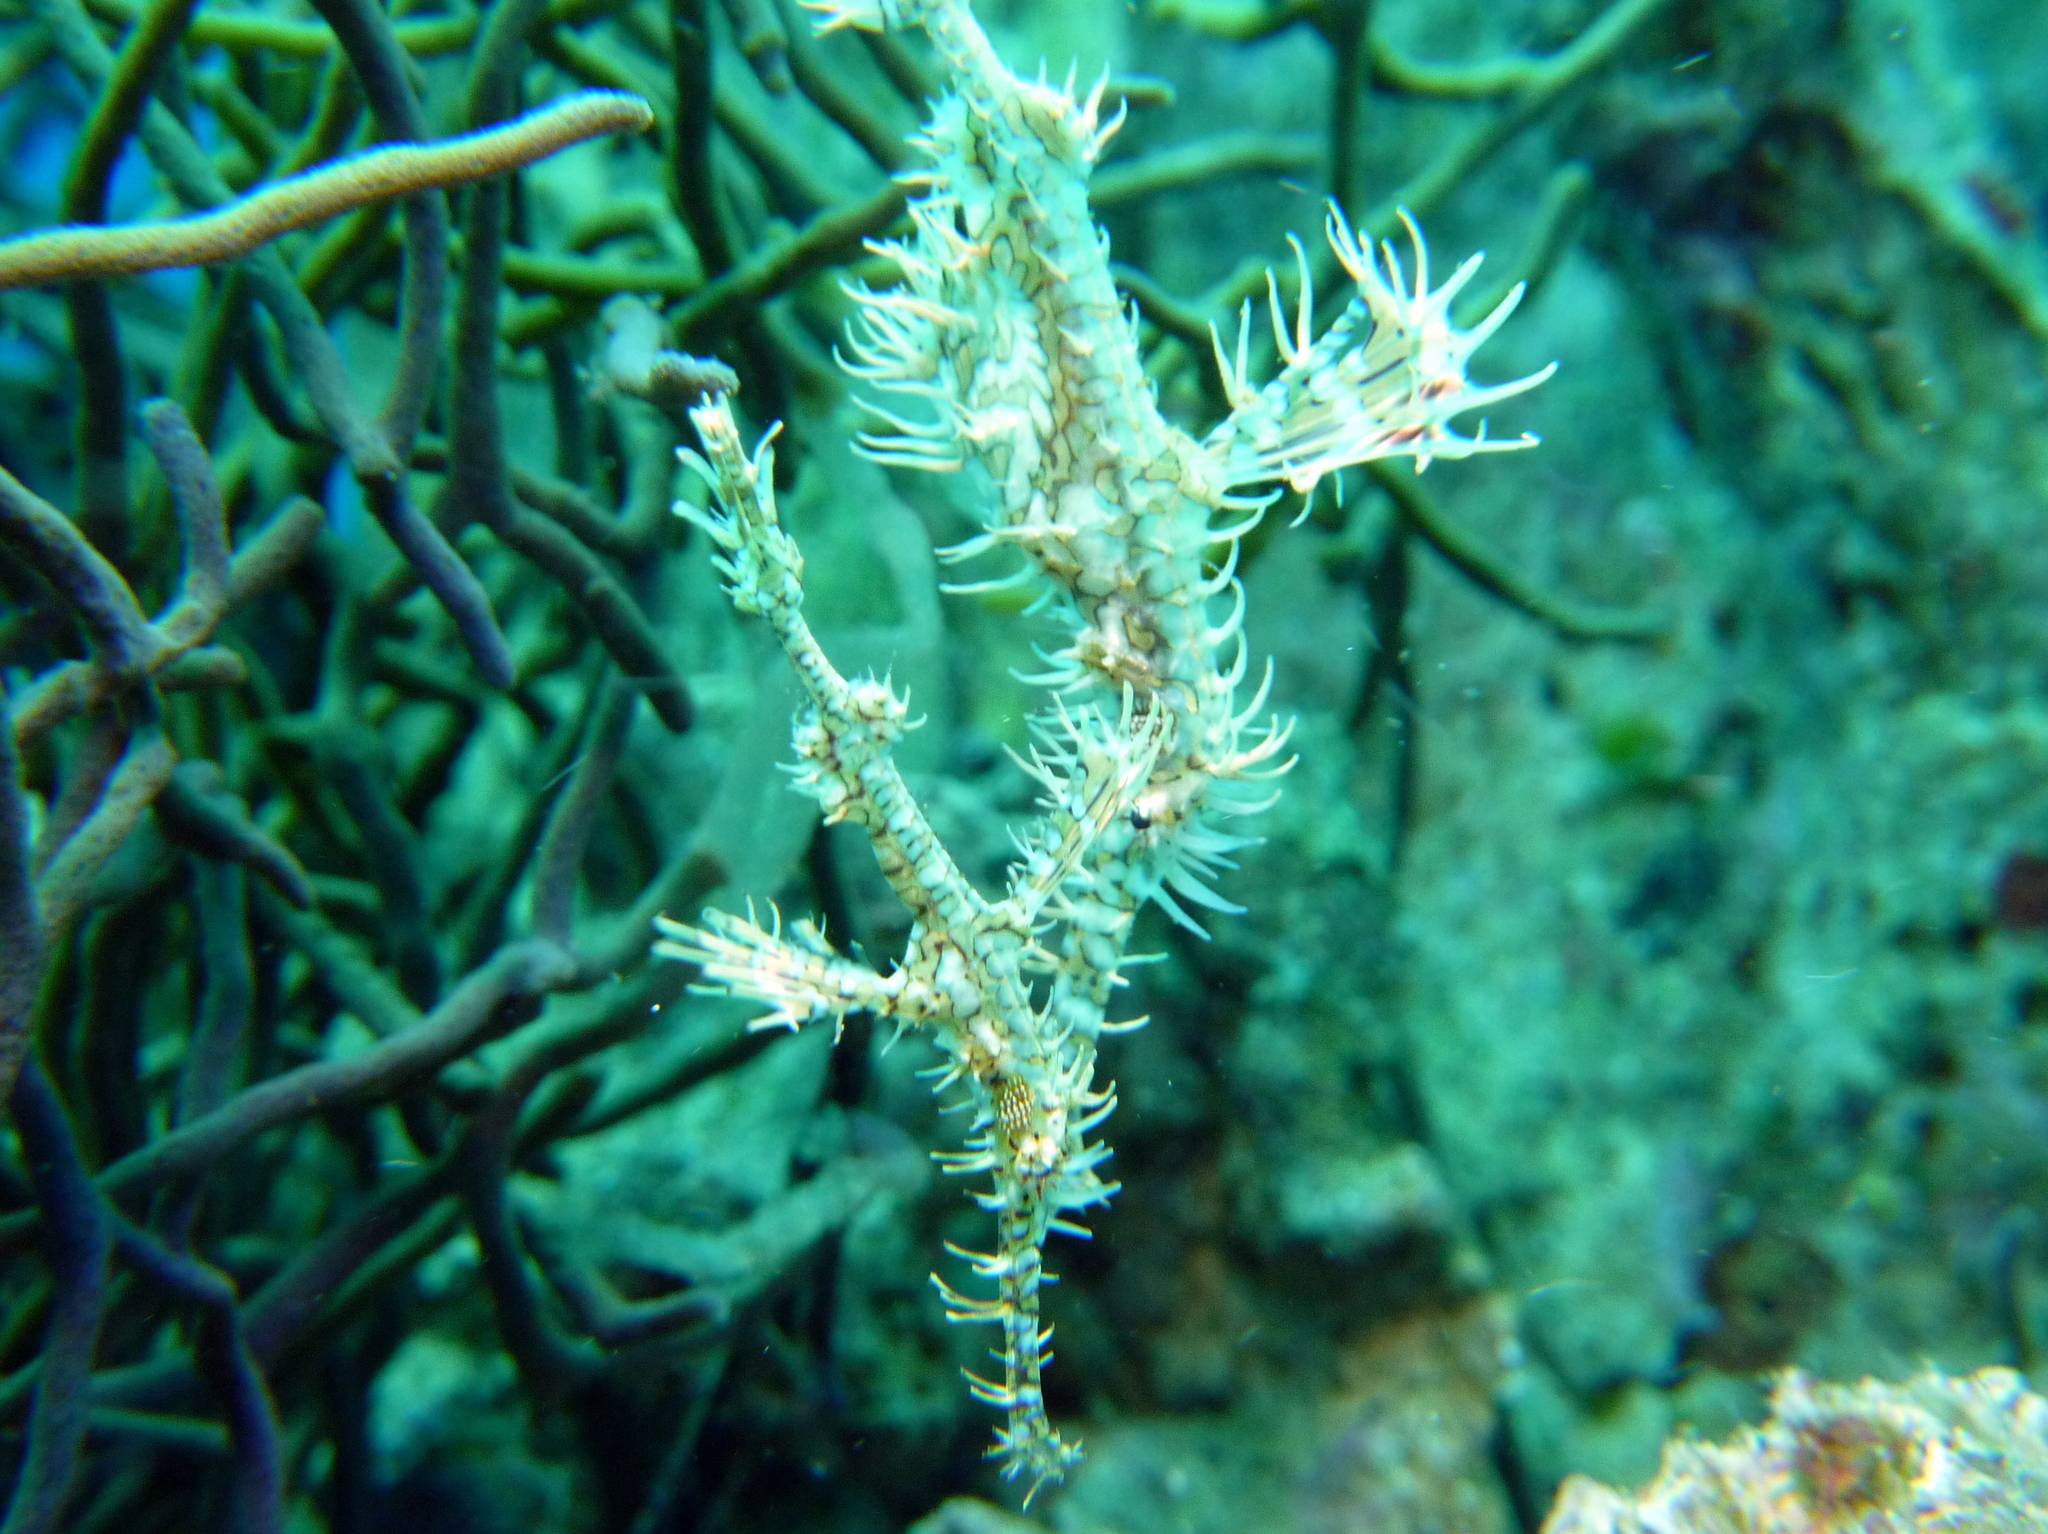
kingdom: Animalia
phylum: Chordata
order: Syngnathiformes
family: Solenostomidae
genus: Solenostomus
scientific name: Solenostomus paradoxus
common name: Ghost pipefish
